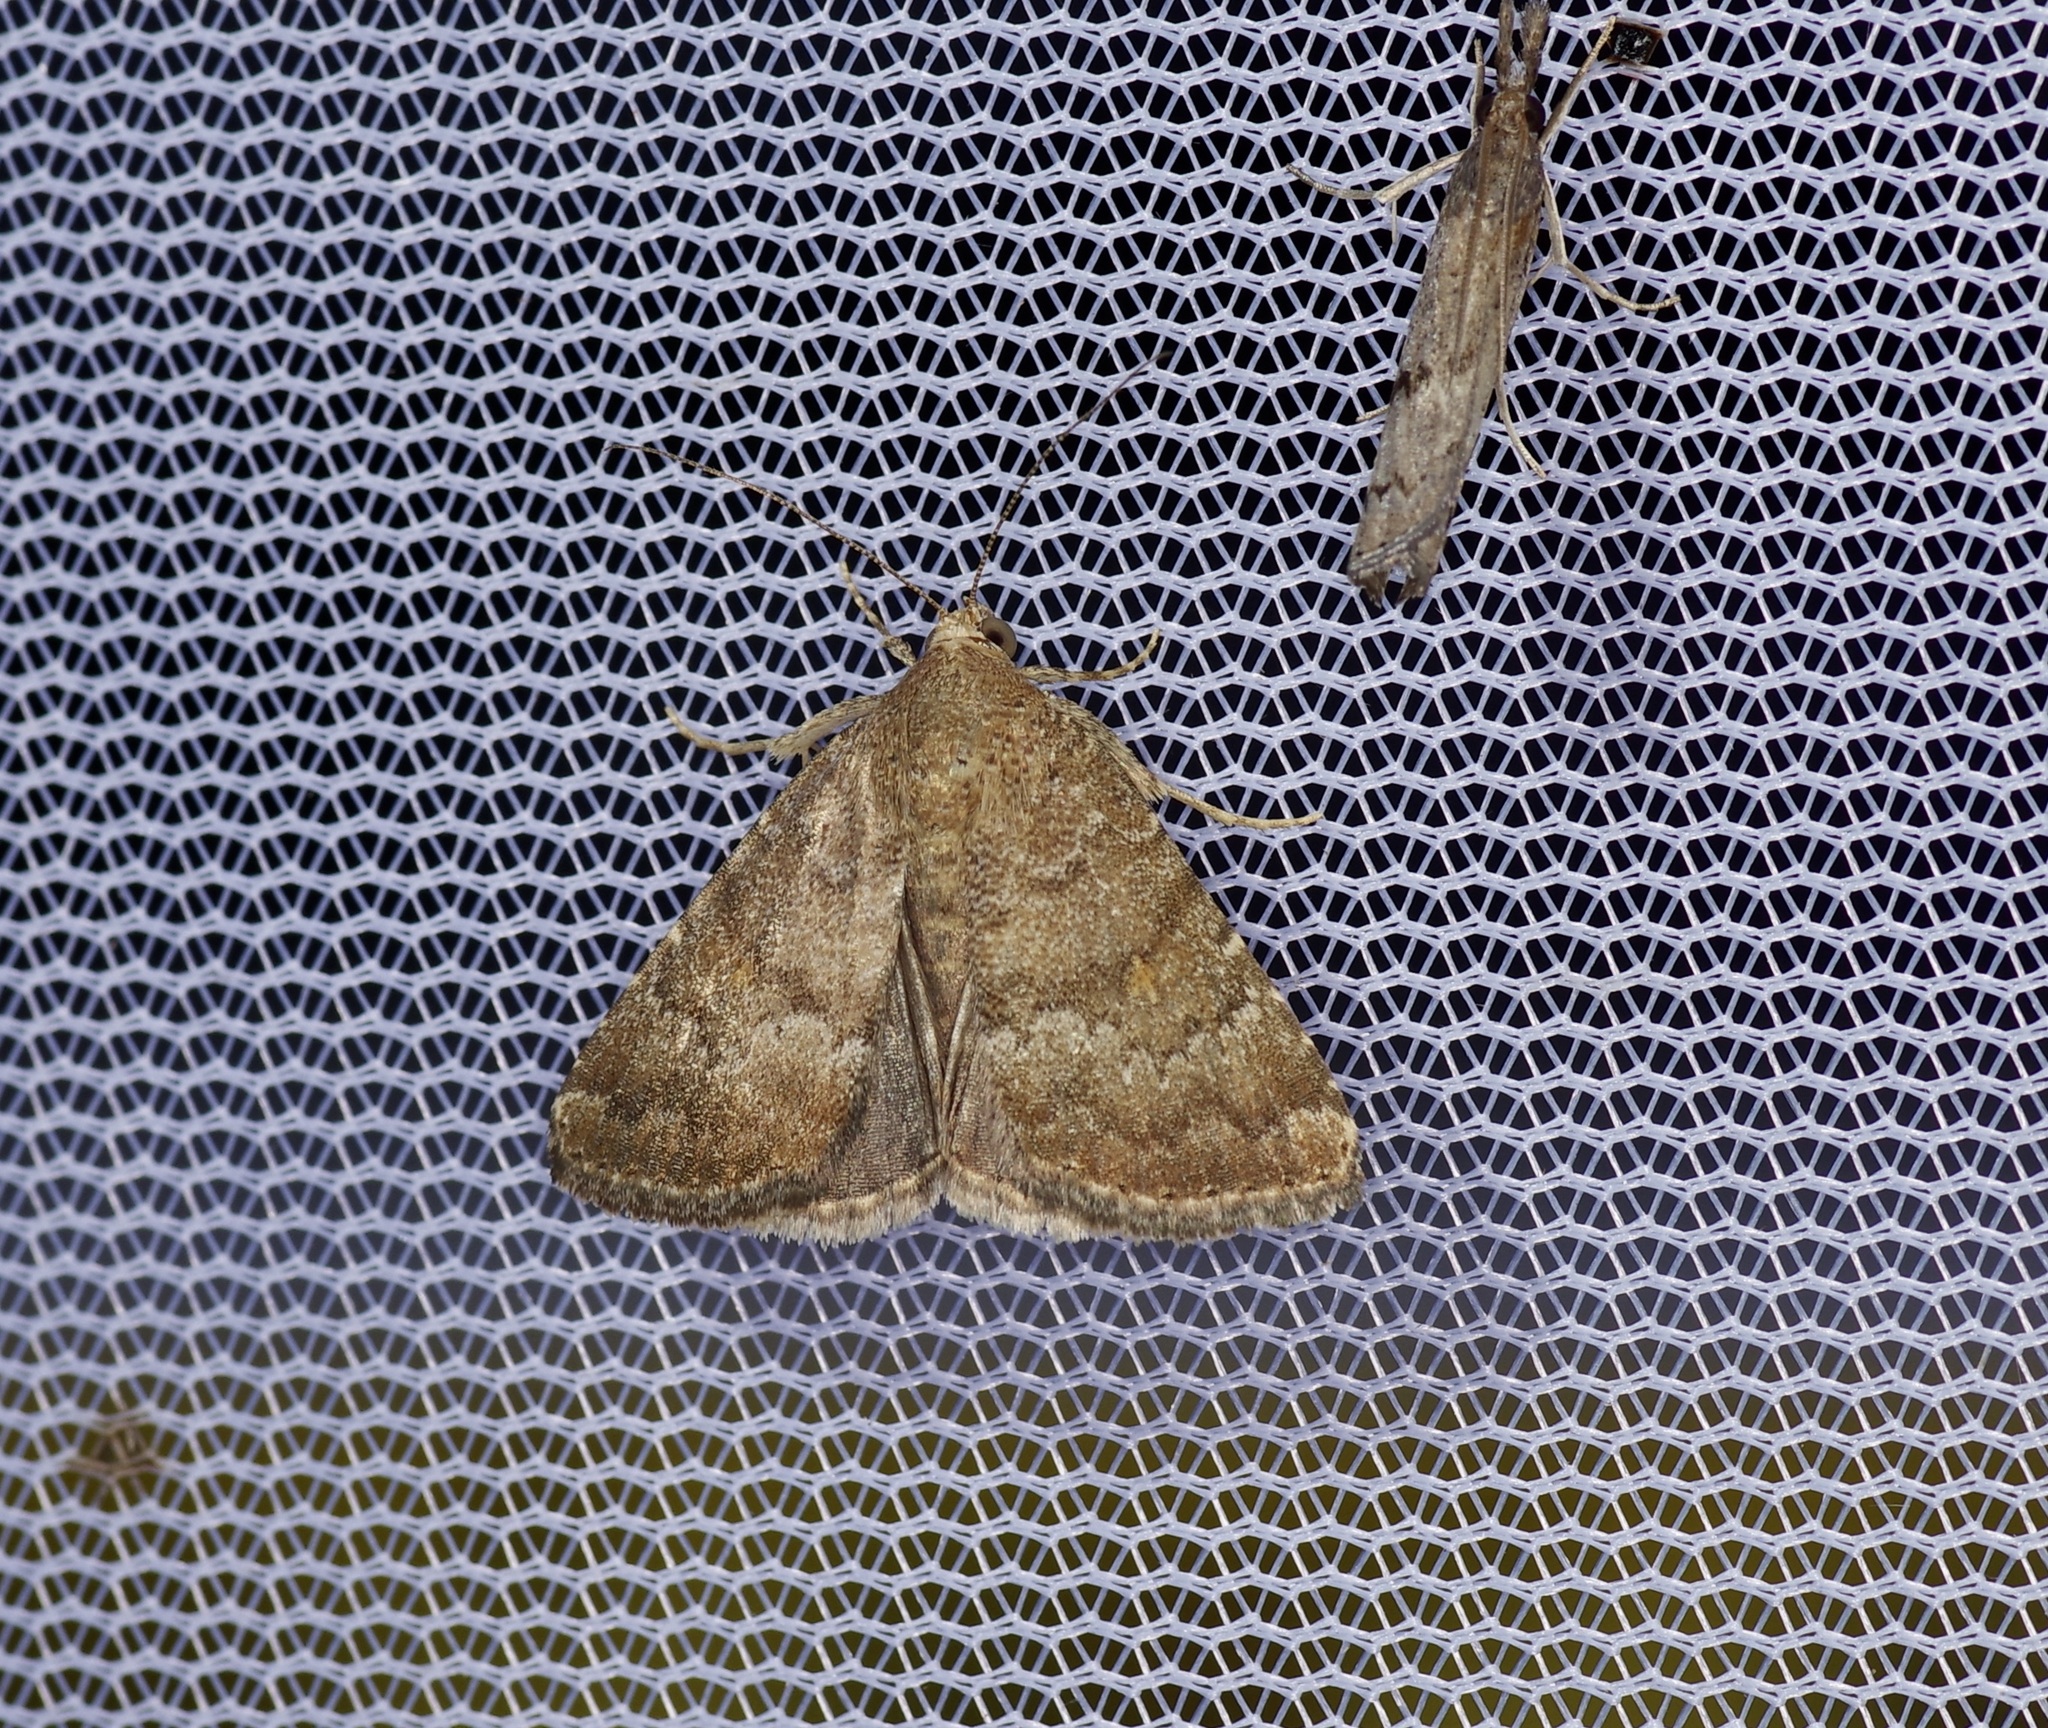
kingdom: Animalia
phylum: Arthropoda
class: Insecta
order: Lepidoptera
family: Noctuidae
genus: Amyna
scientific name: Amyna stricta
